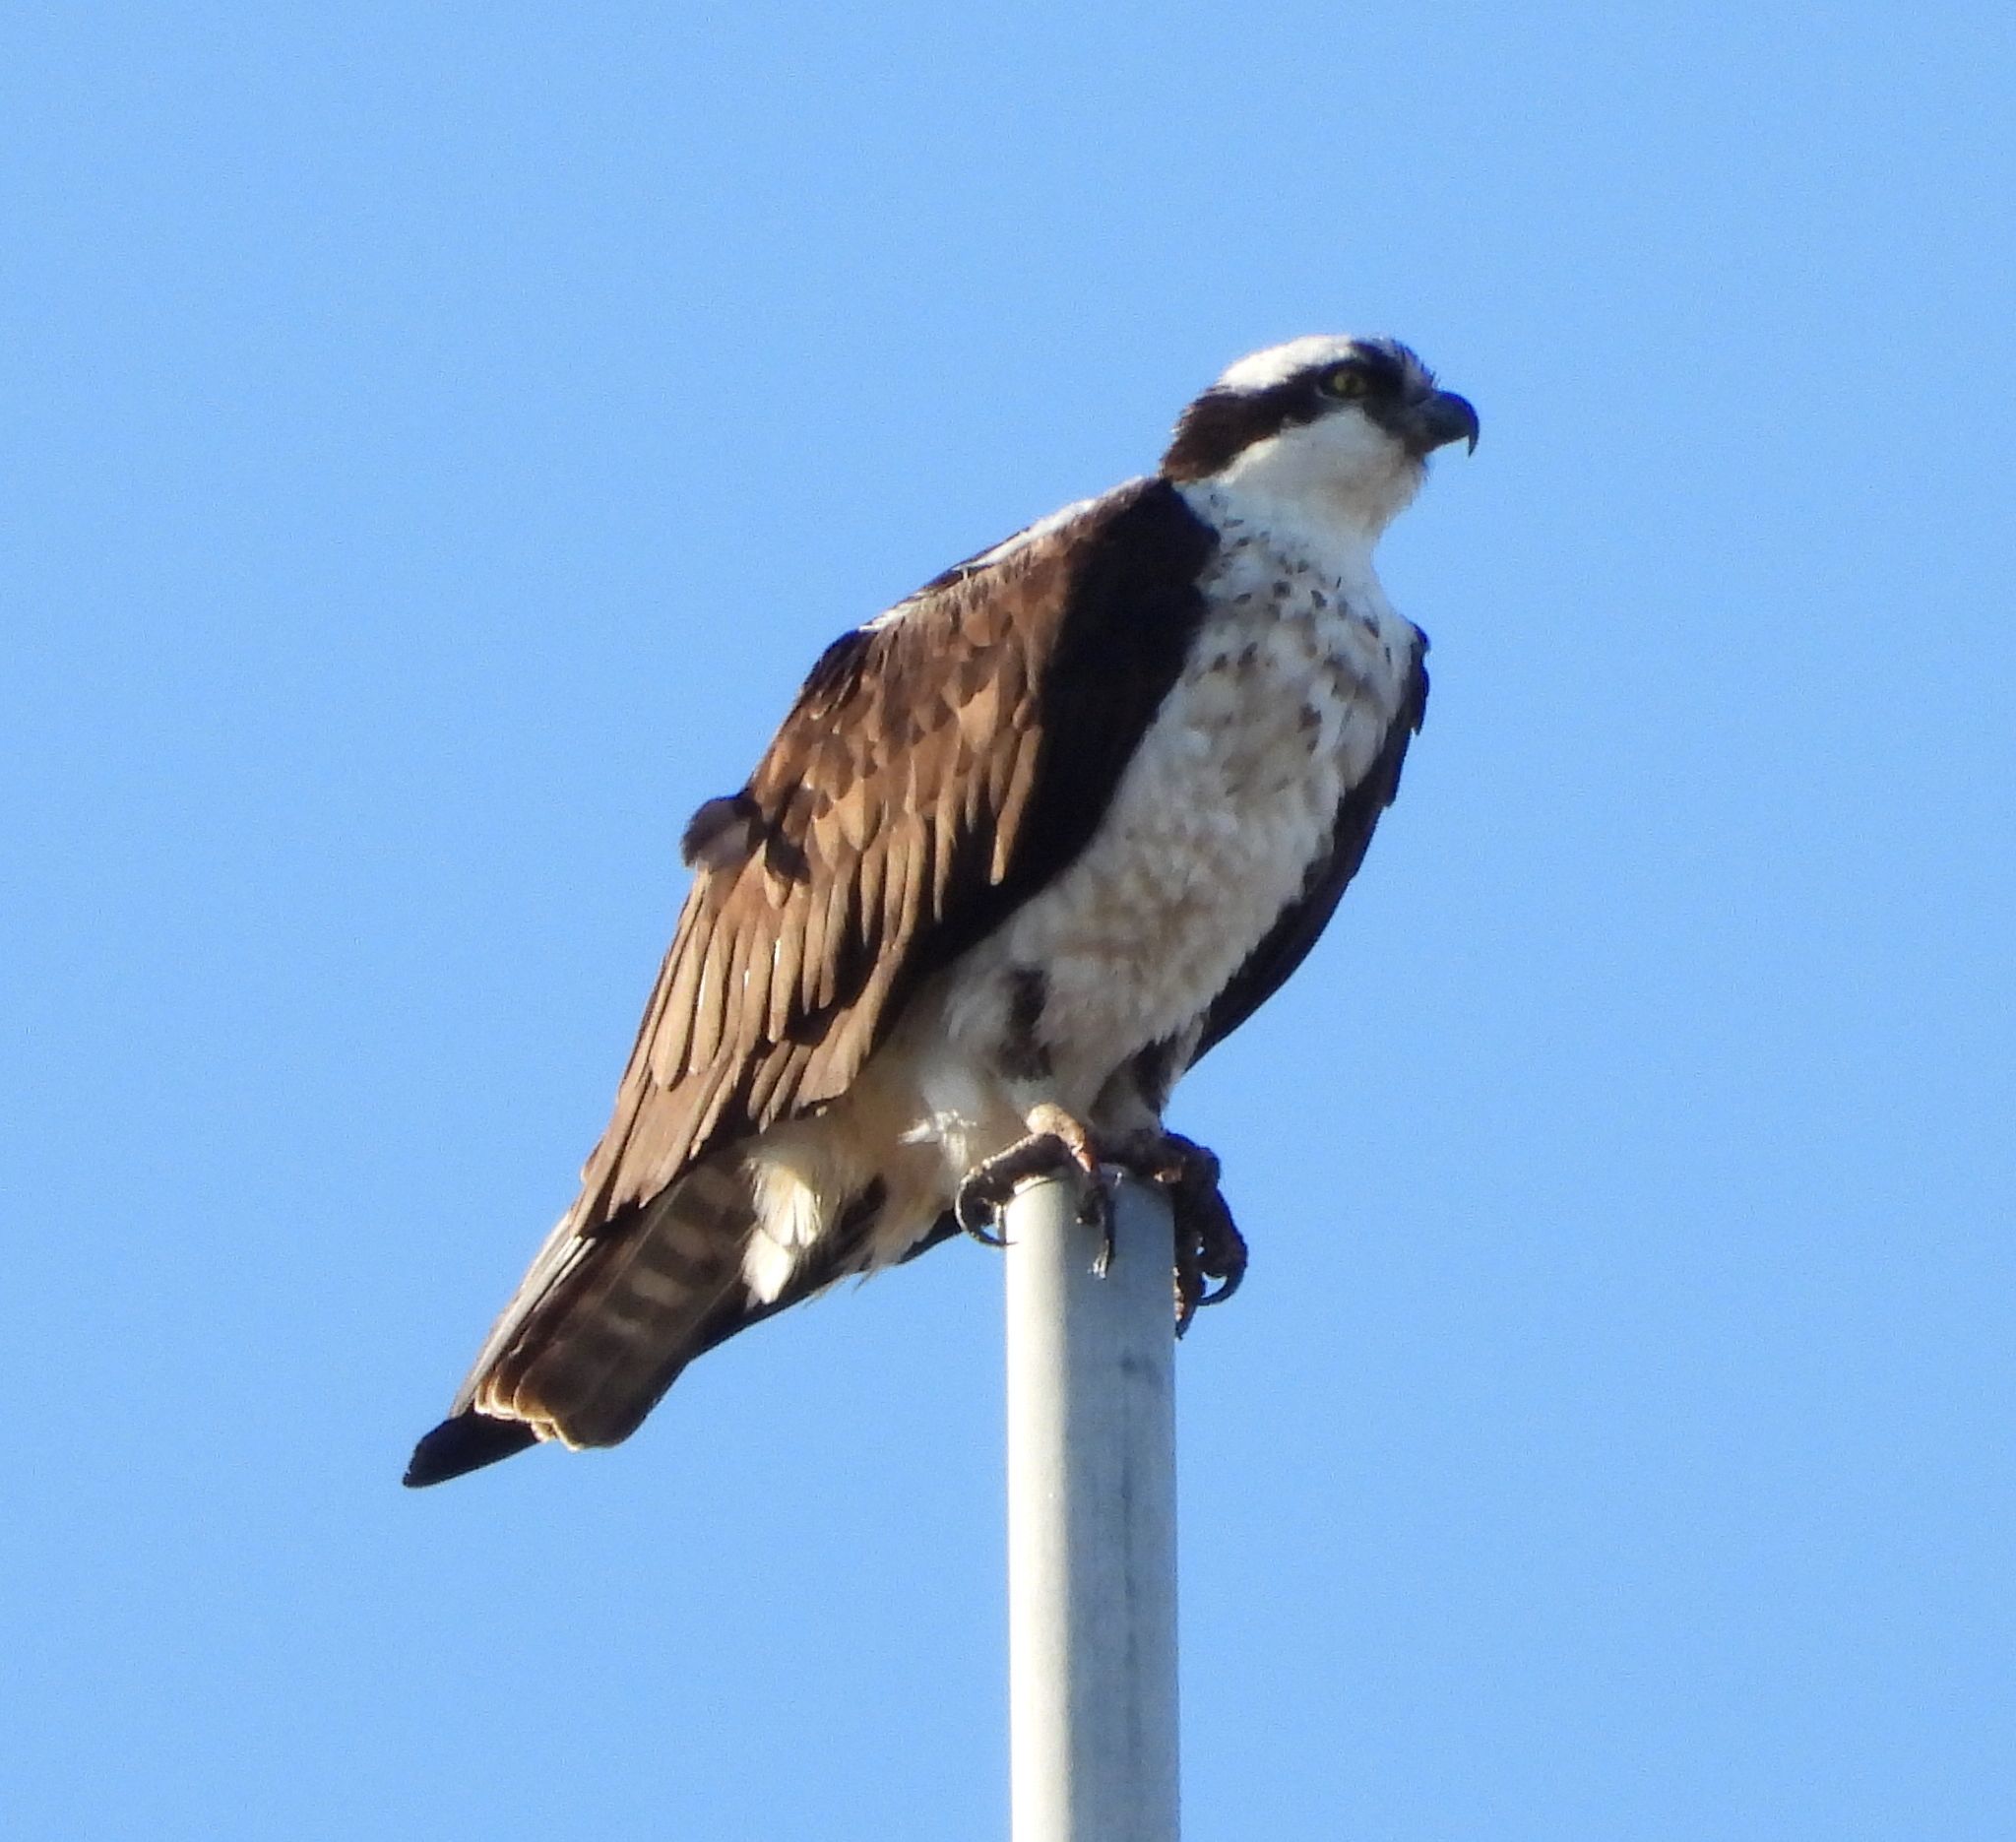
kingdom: Animalia
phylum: Chordata
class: Aves
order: Accipitriformes
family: Pandionidae
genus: Pandion
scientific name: Pandion haliaetus
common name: Osprey
